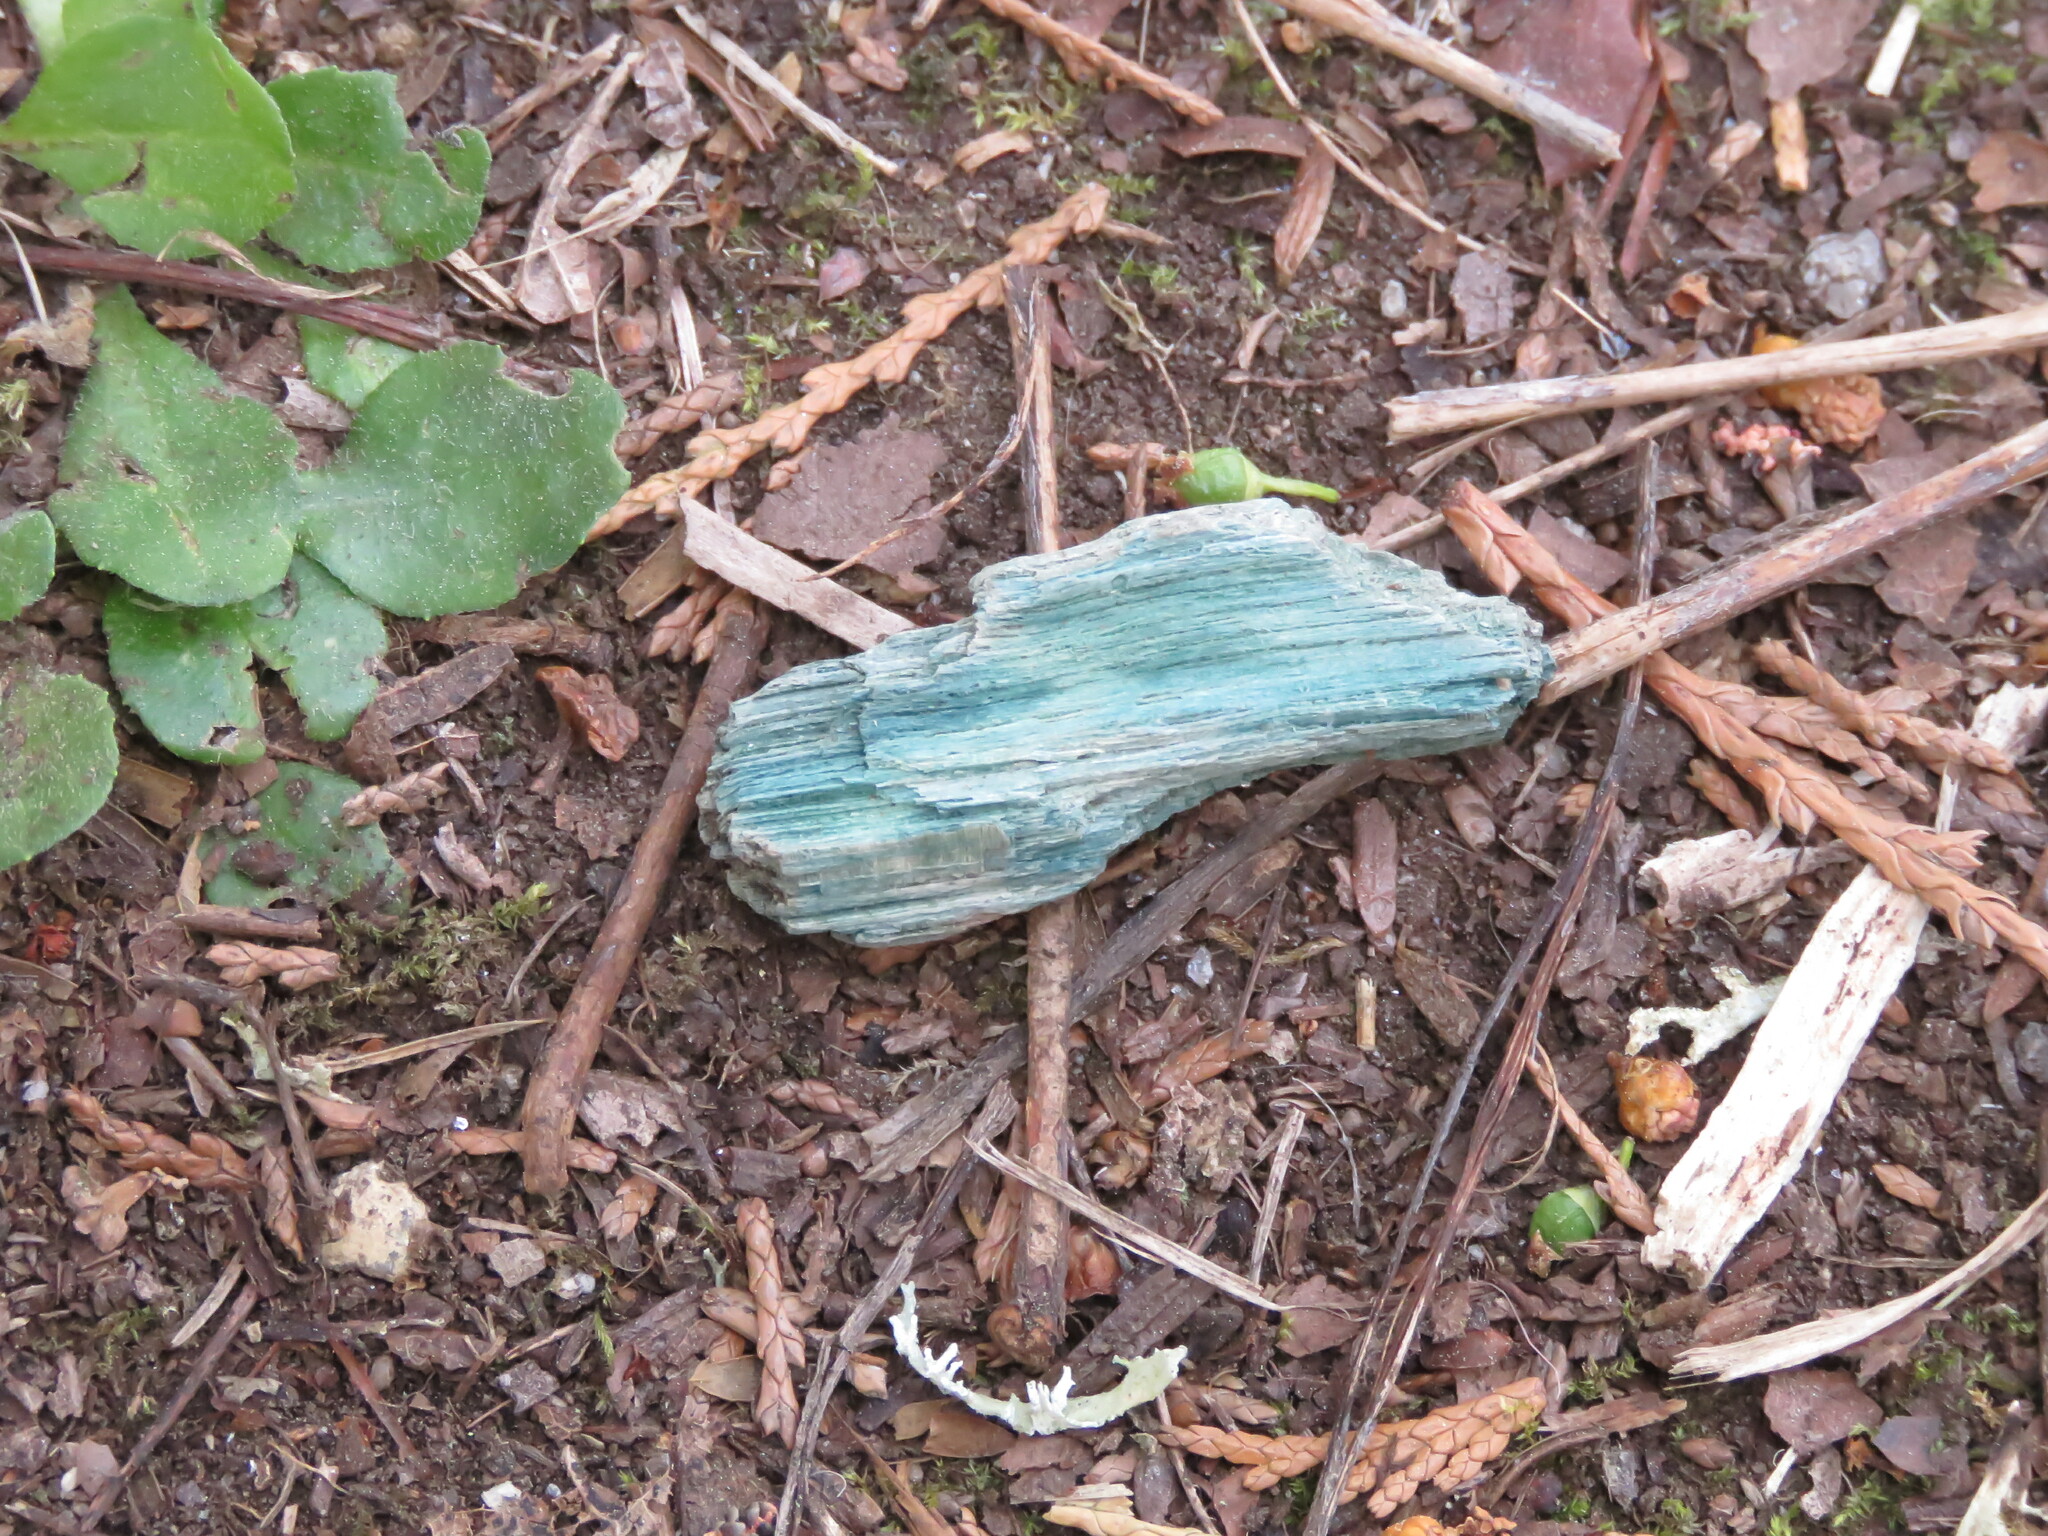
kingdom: Fungi
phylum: Ascomycota
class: Leotiomycetes
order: Helotiales
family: Chlorociboriaceae
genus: Chlorociboria
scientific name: Chlorociboria aeruginascens
